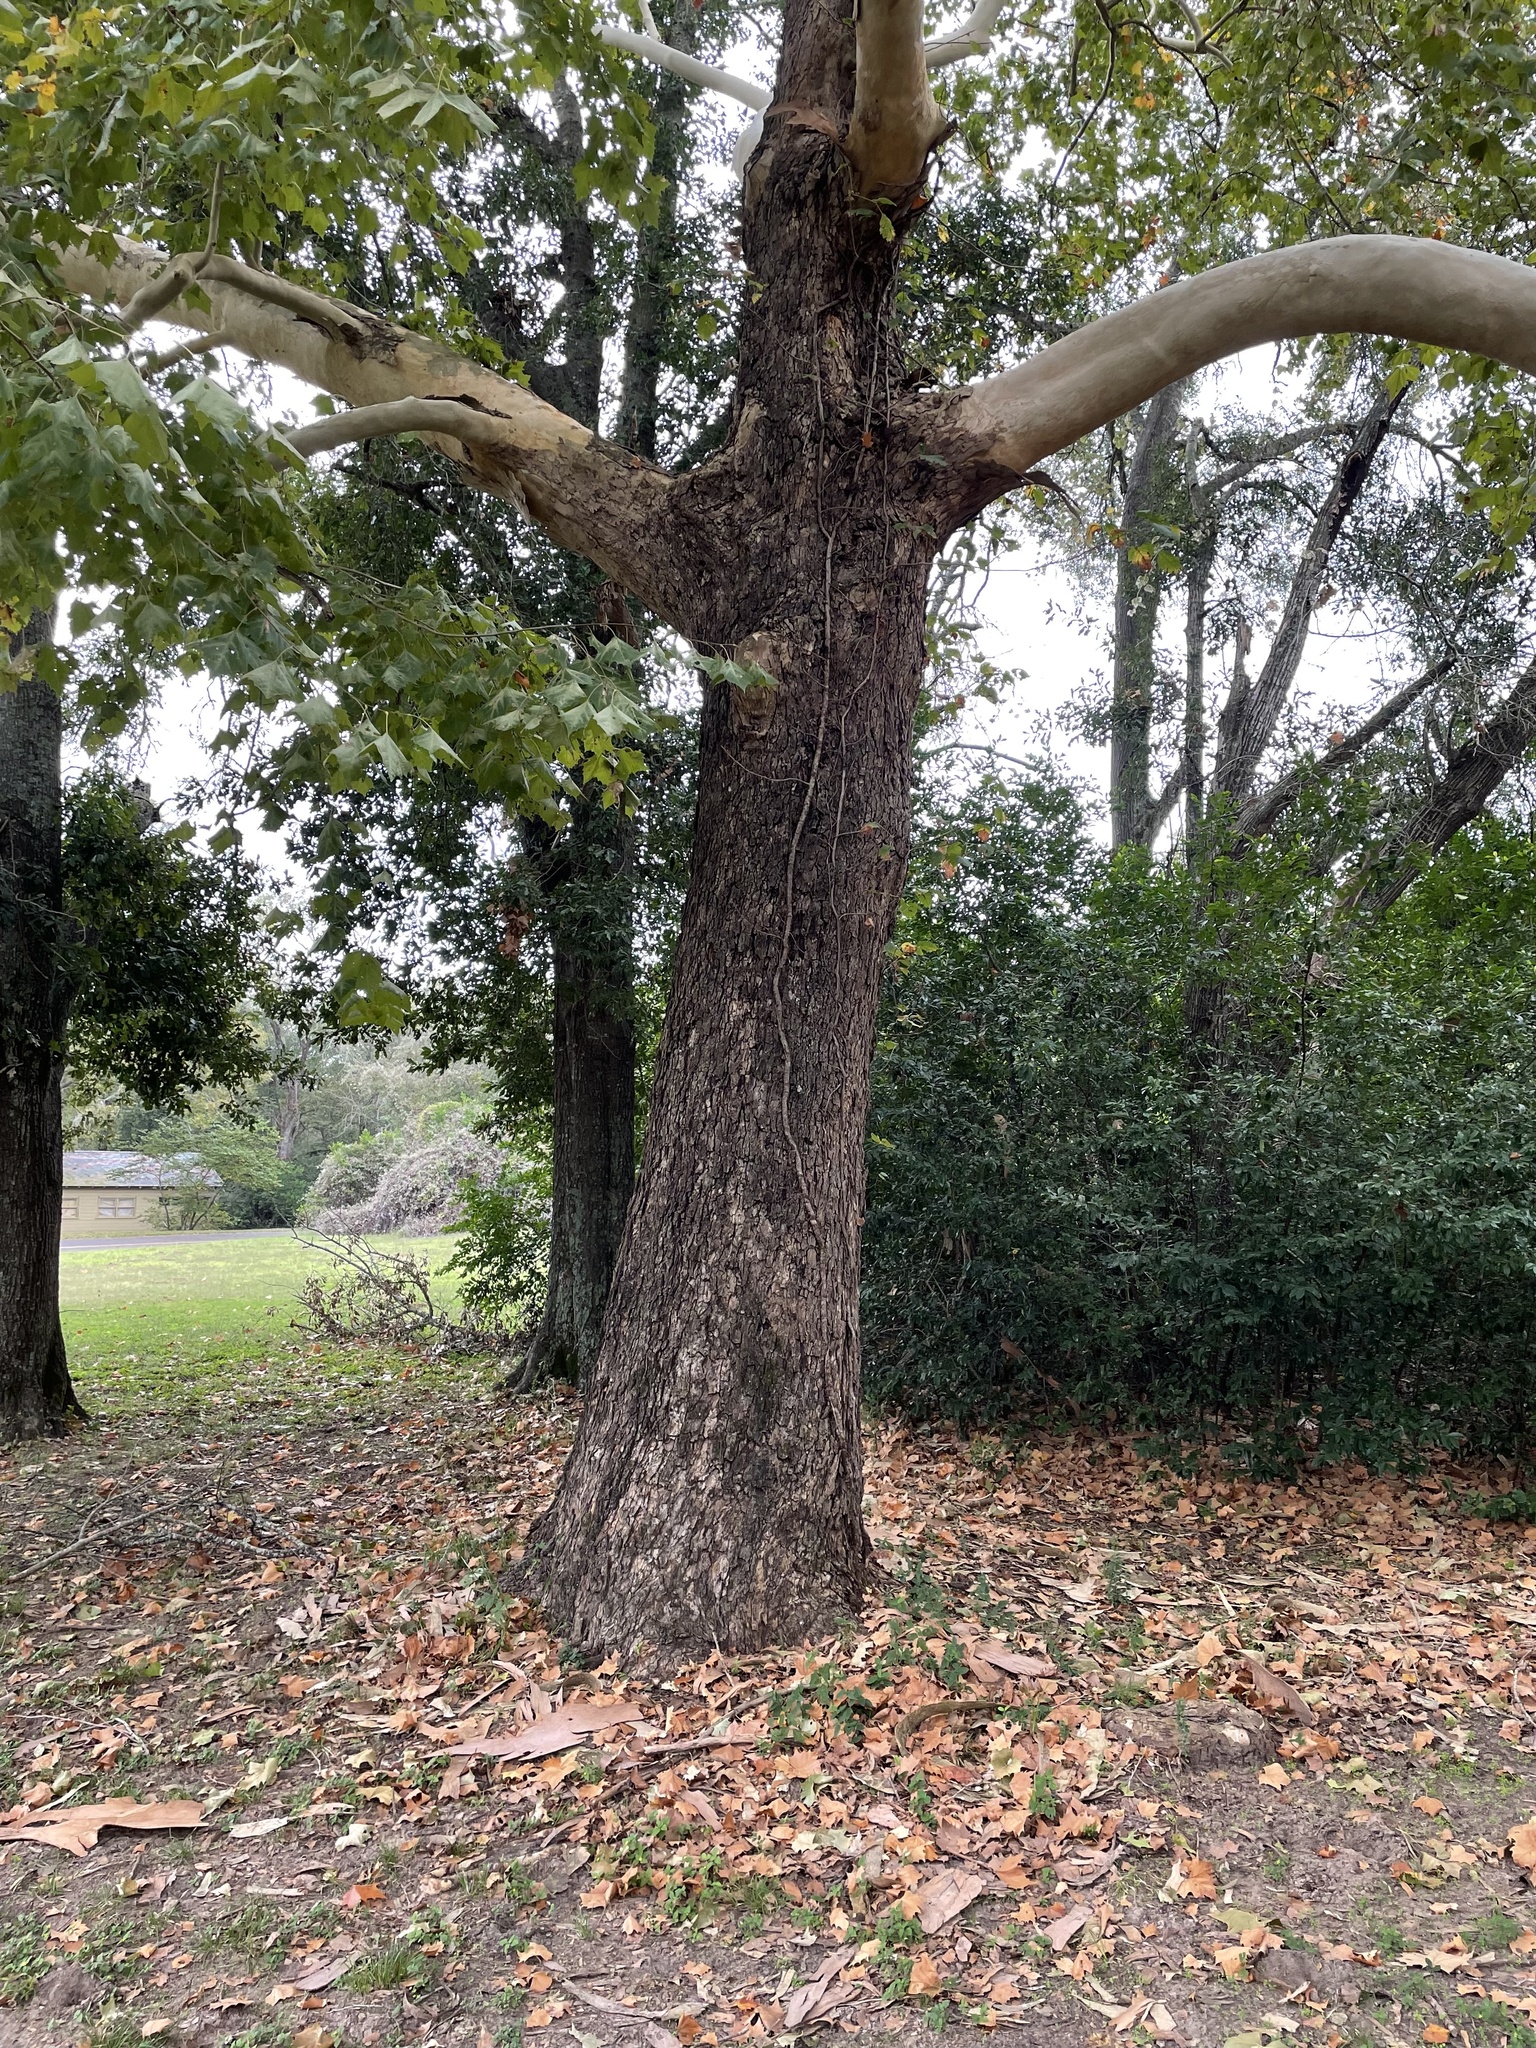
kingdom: Plantae
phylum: Tracheophyta
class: Magnoliopsida
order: Proteales
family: Platanaceae
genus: Platanus
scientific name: Platanus occidentalis
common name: American sycamore
